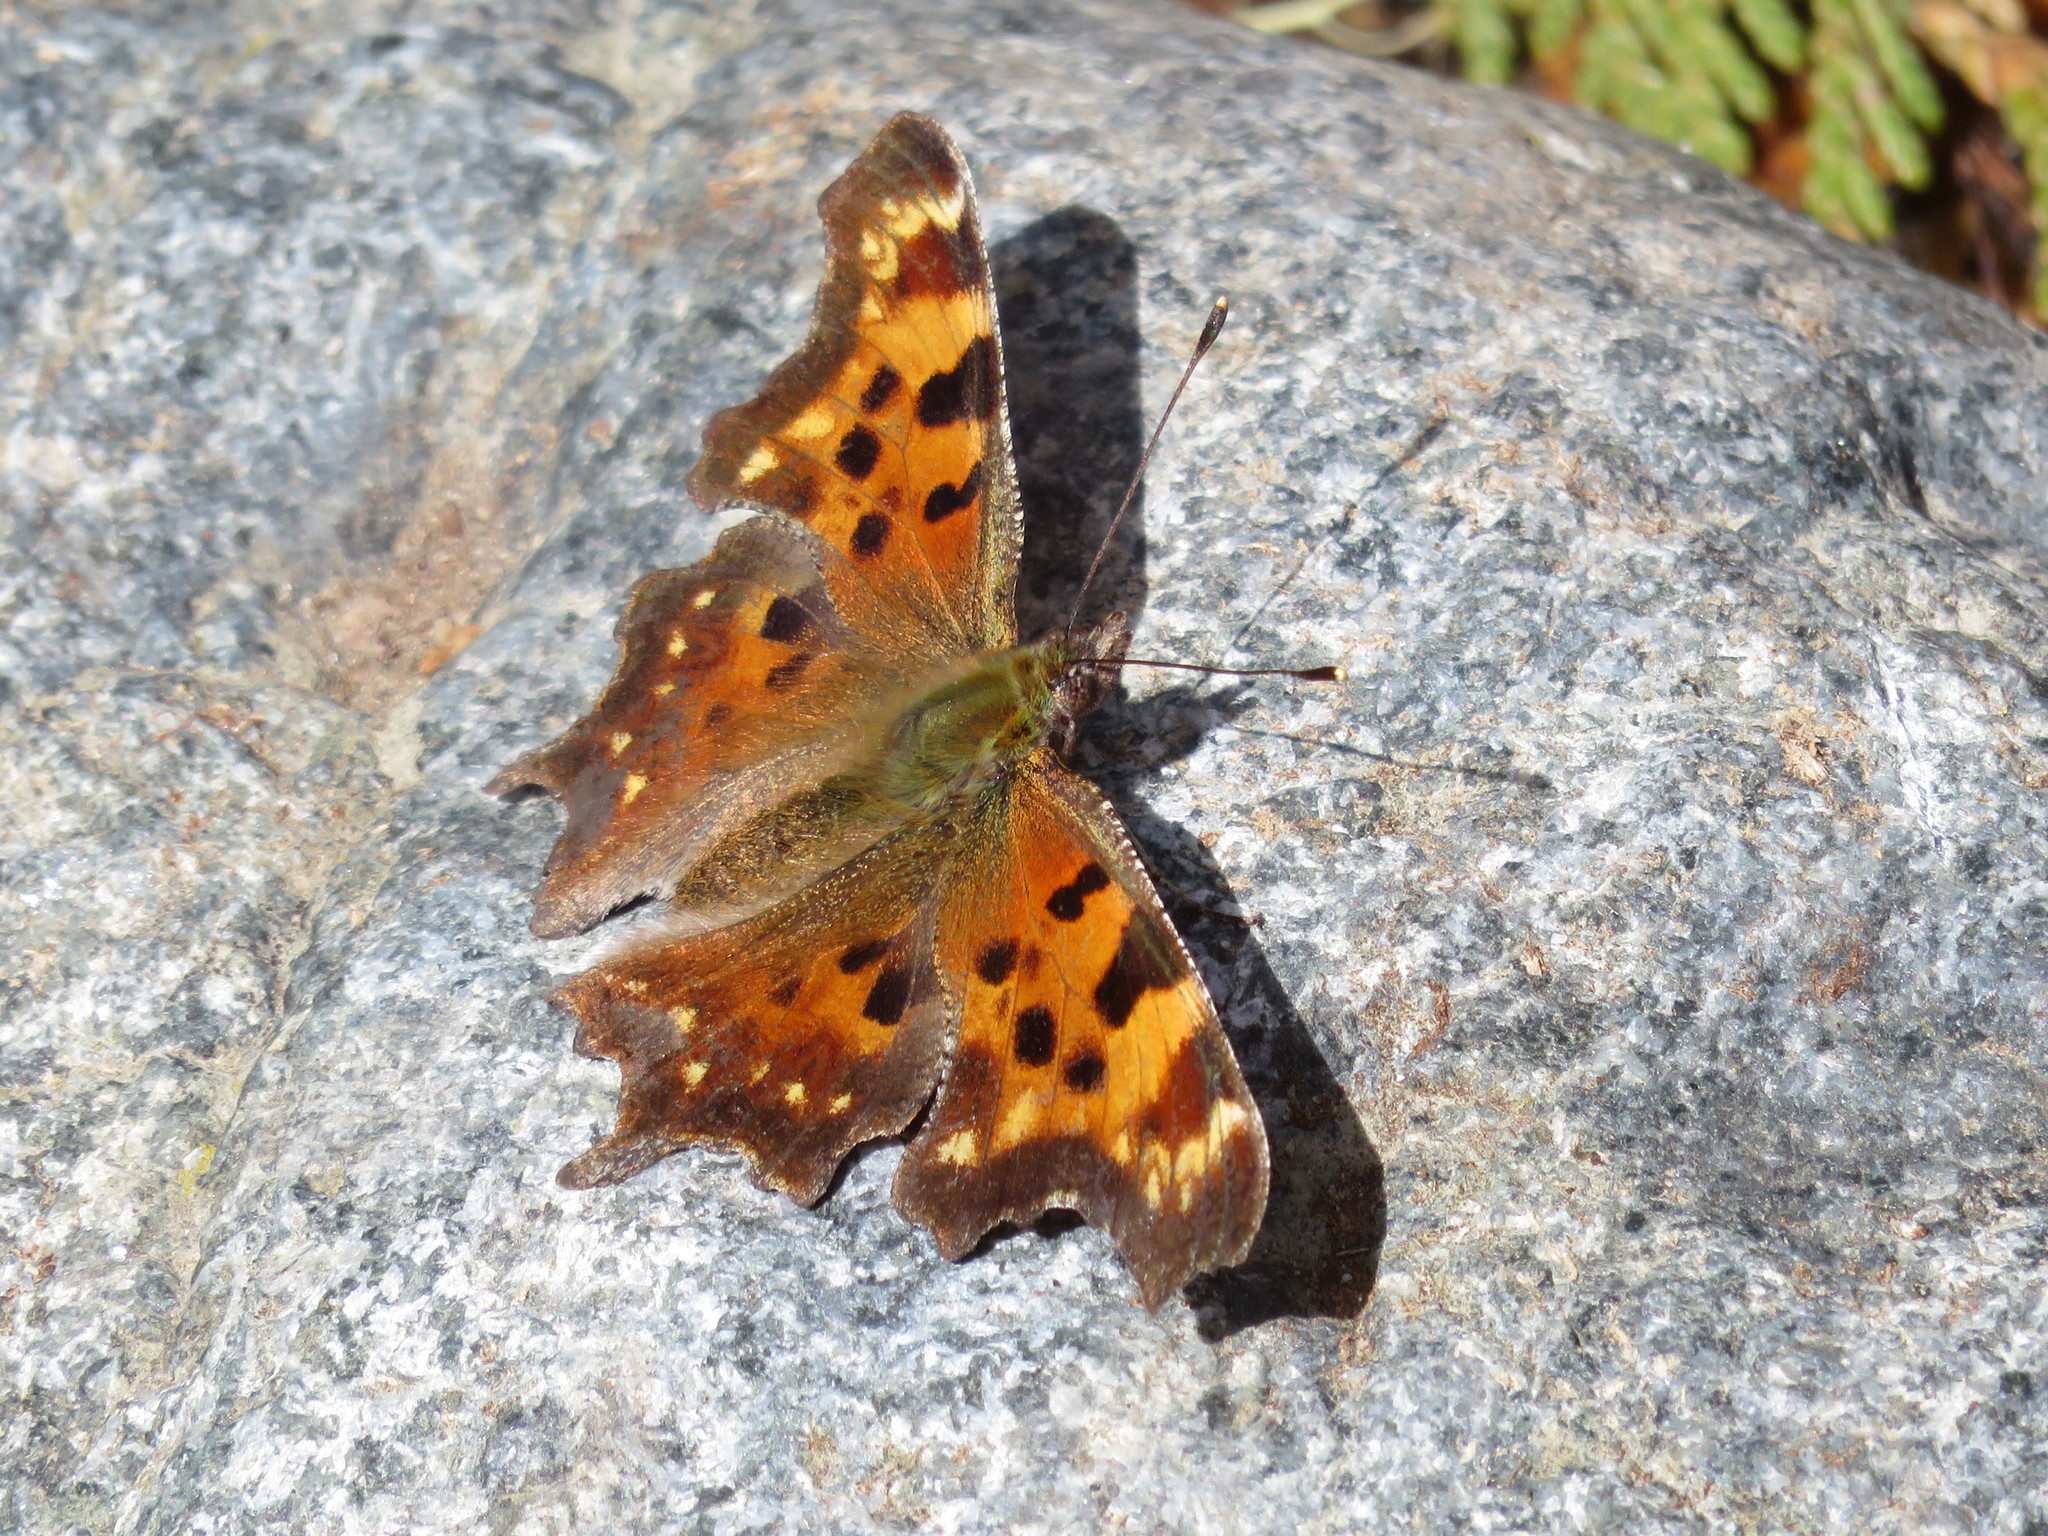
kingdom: Animalia
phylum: Arthropoda
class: Insecta
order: Lepidoptera
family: Nymphalidae
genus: Polygonia
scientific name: Polygonia faunus
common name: Green comma
